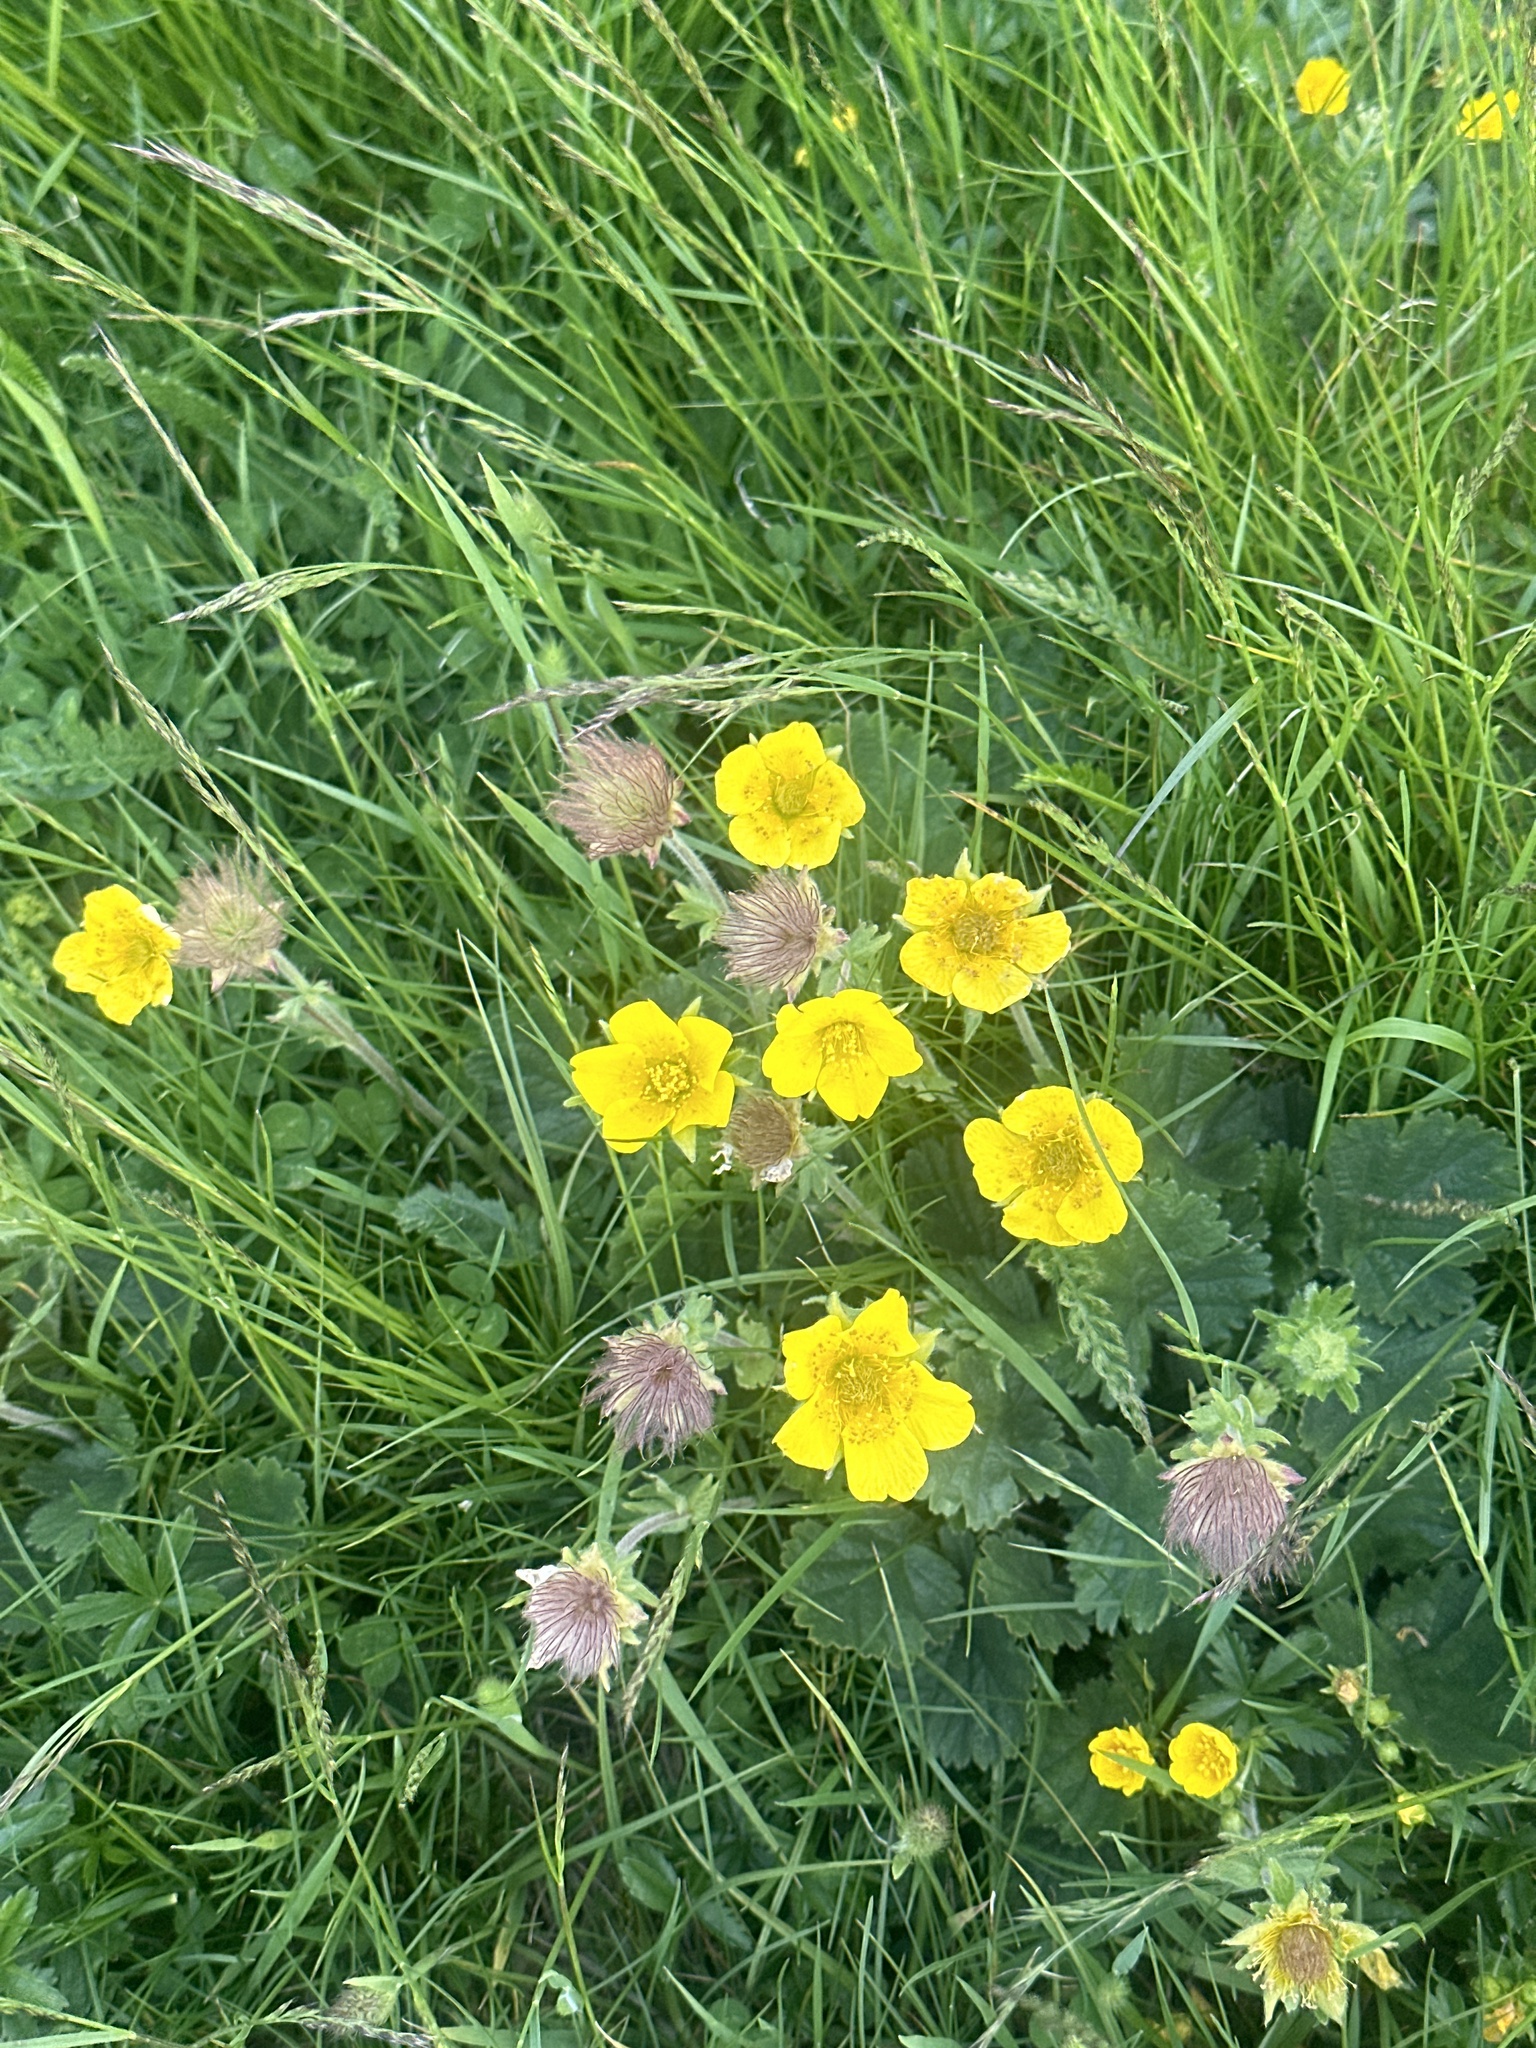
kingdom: Plantae
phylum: Tracheophyta
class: Magnoliopsida
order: Rosales
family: Rosaceae
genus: Geum
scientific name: Geum montanum
